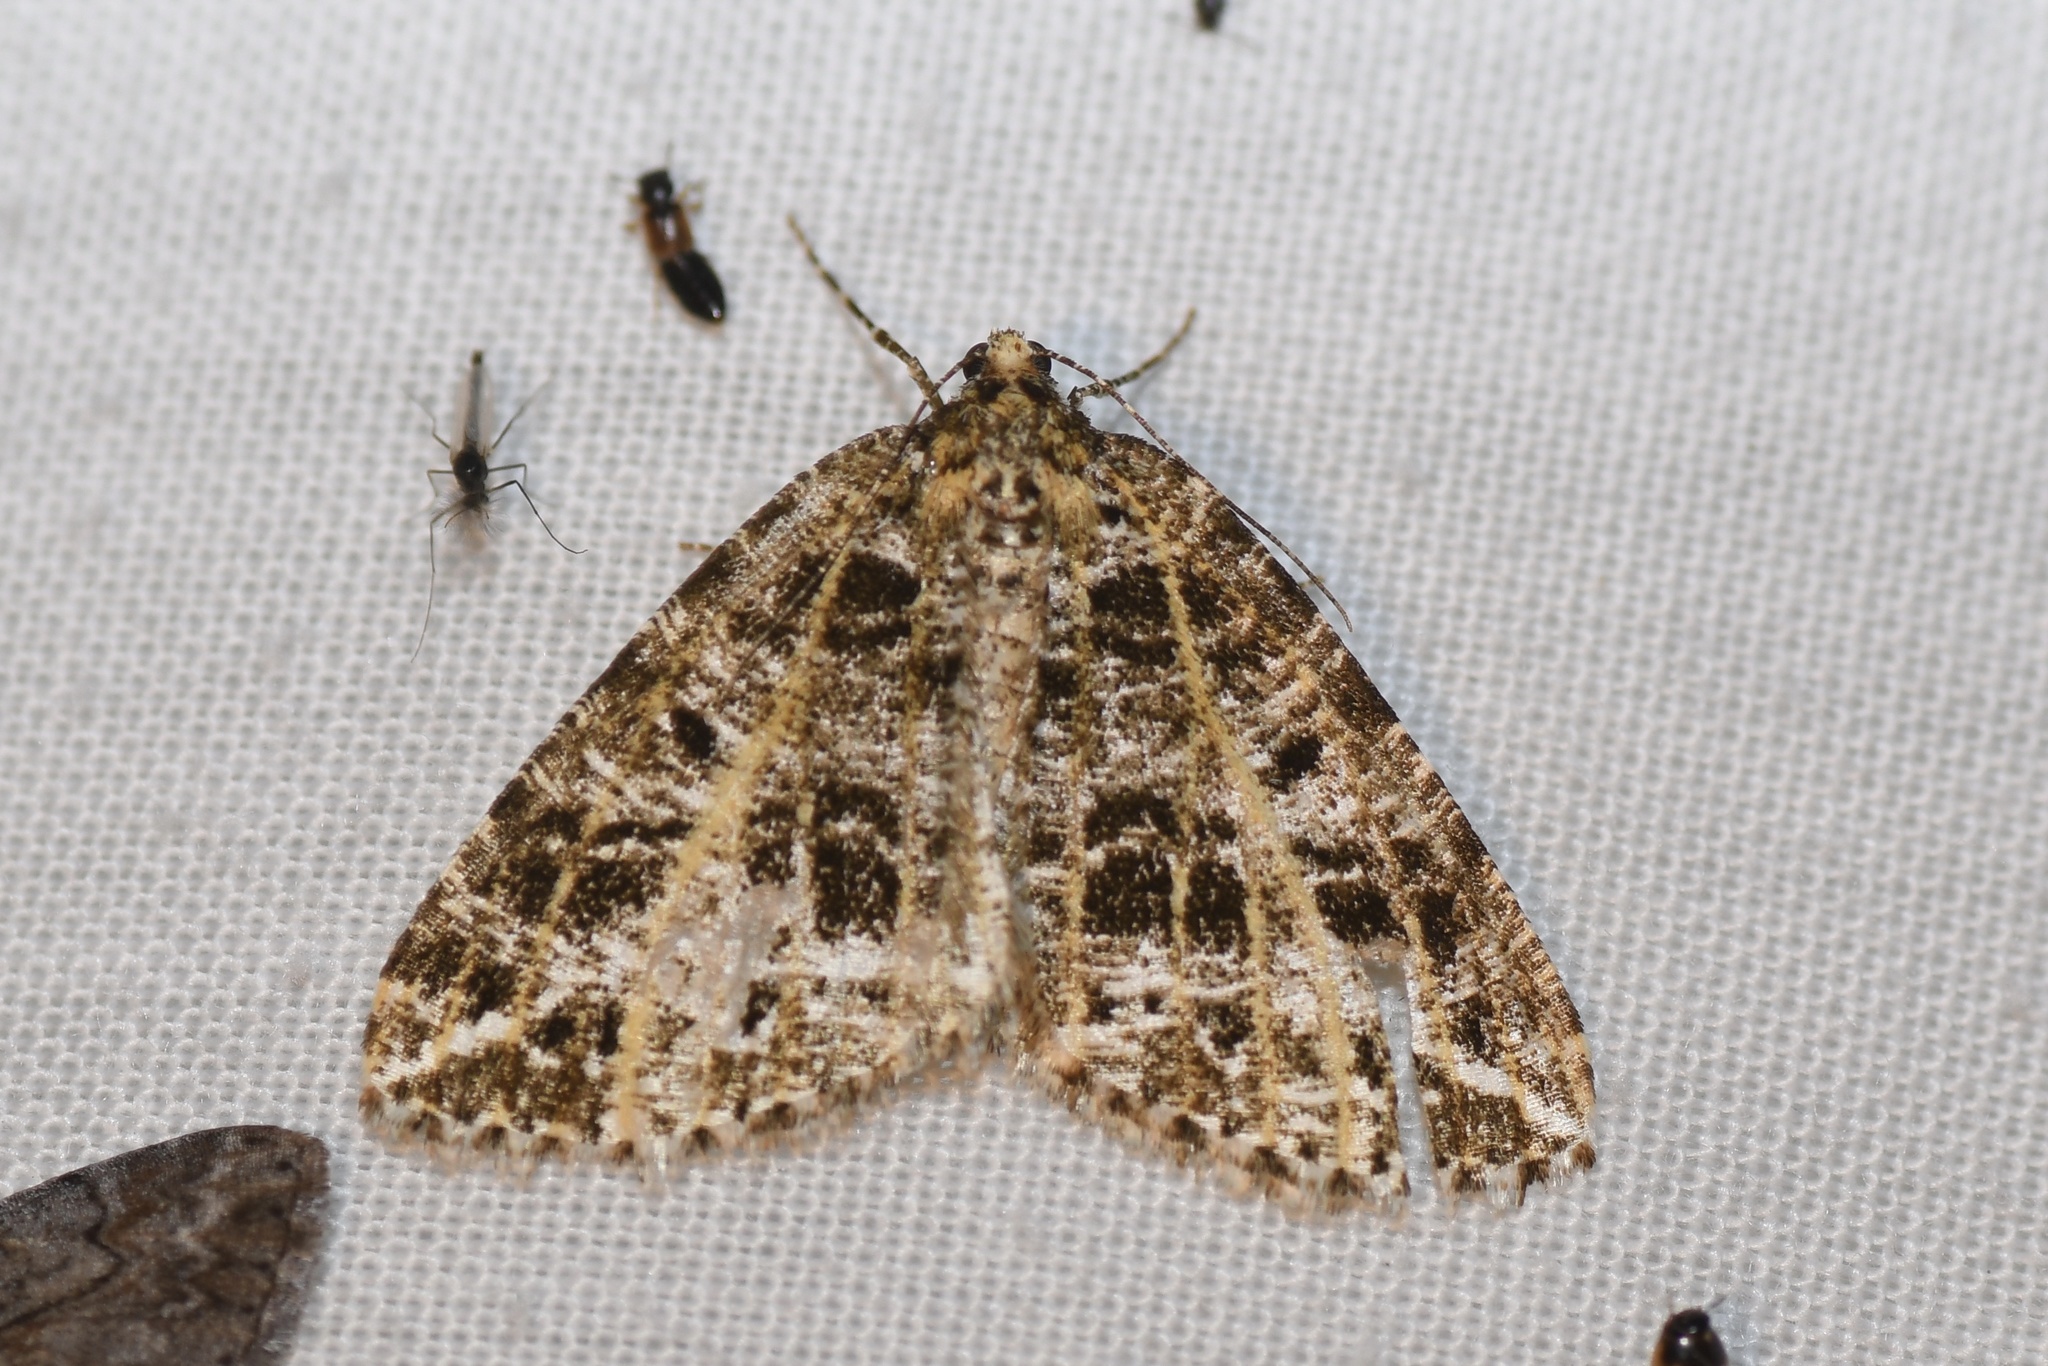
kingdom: Animalia
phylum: Arthropoda
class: Insecta
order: Lepidoptera
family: Geometridae
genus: Orthofidonia
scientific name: Orthofidonia flavivenata
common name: Yellow-veined geometer moth
